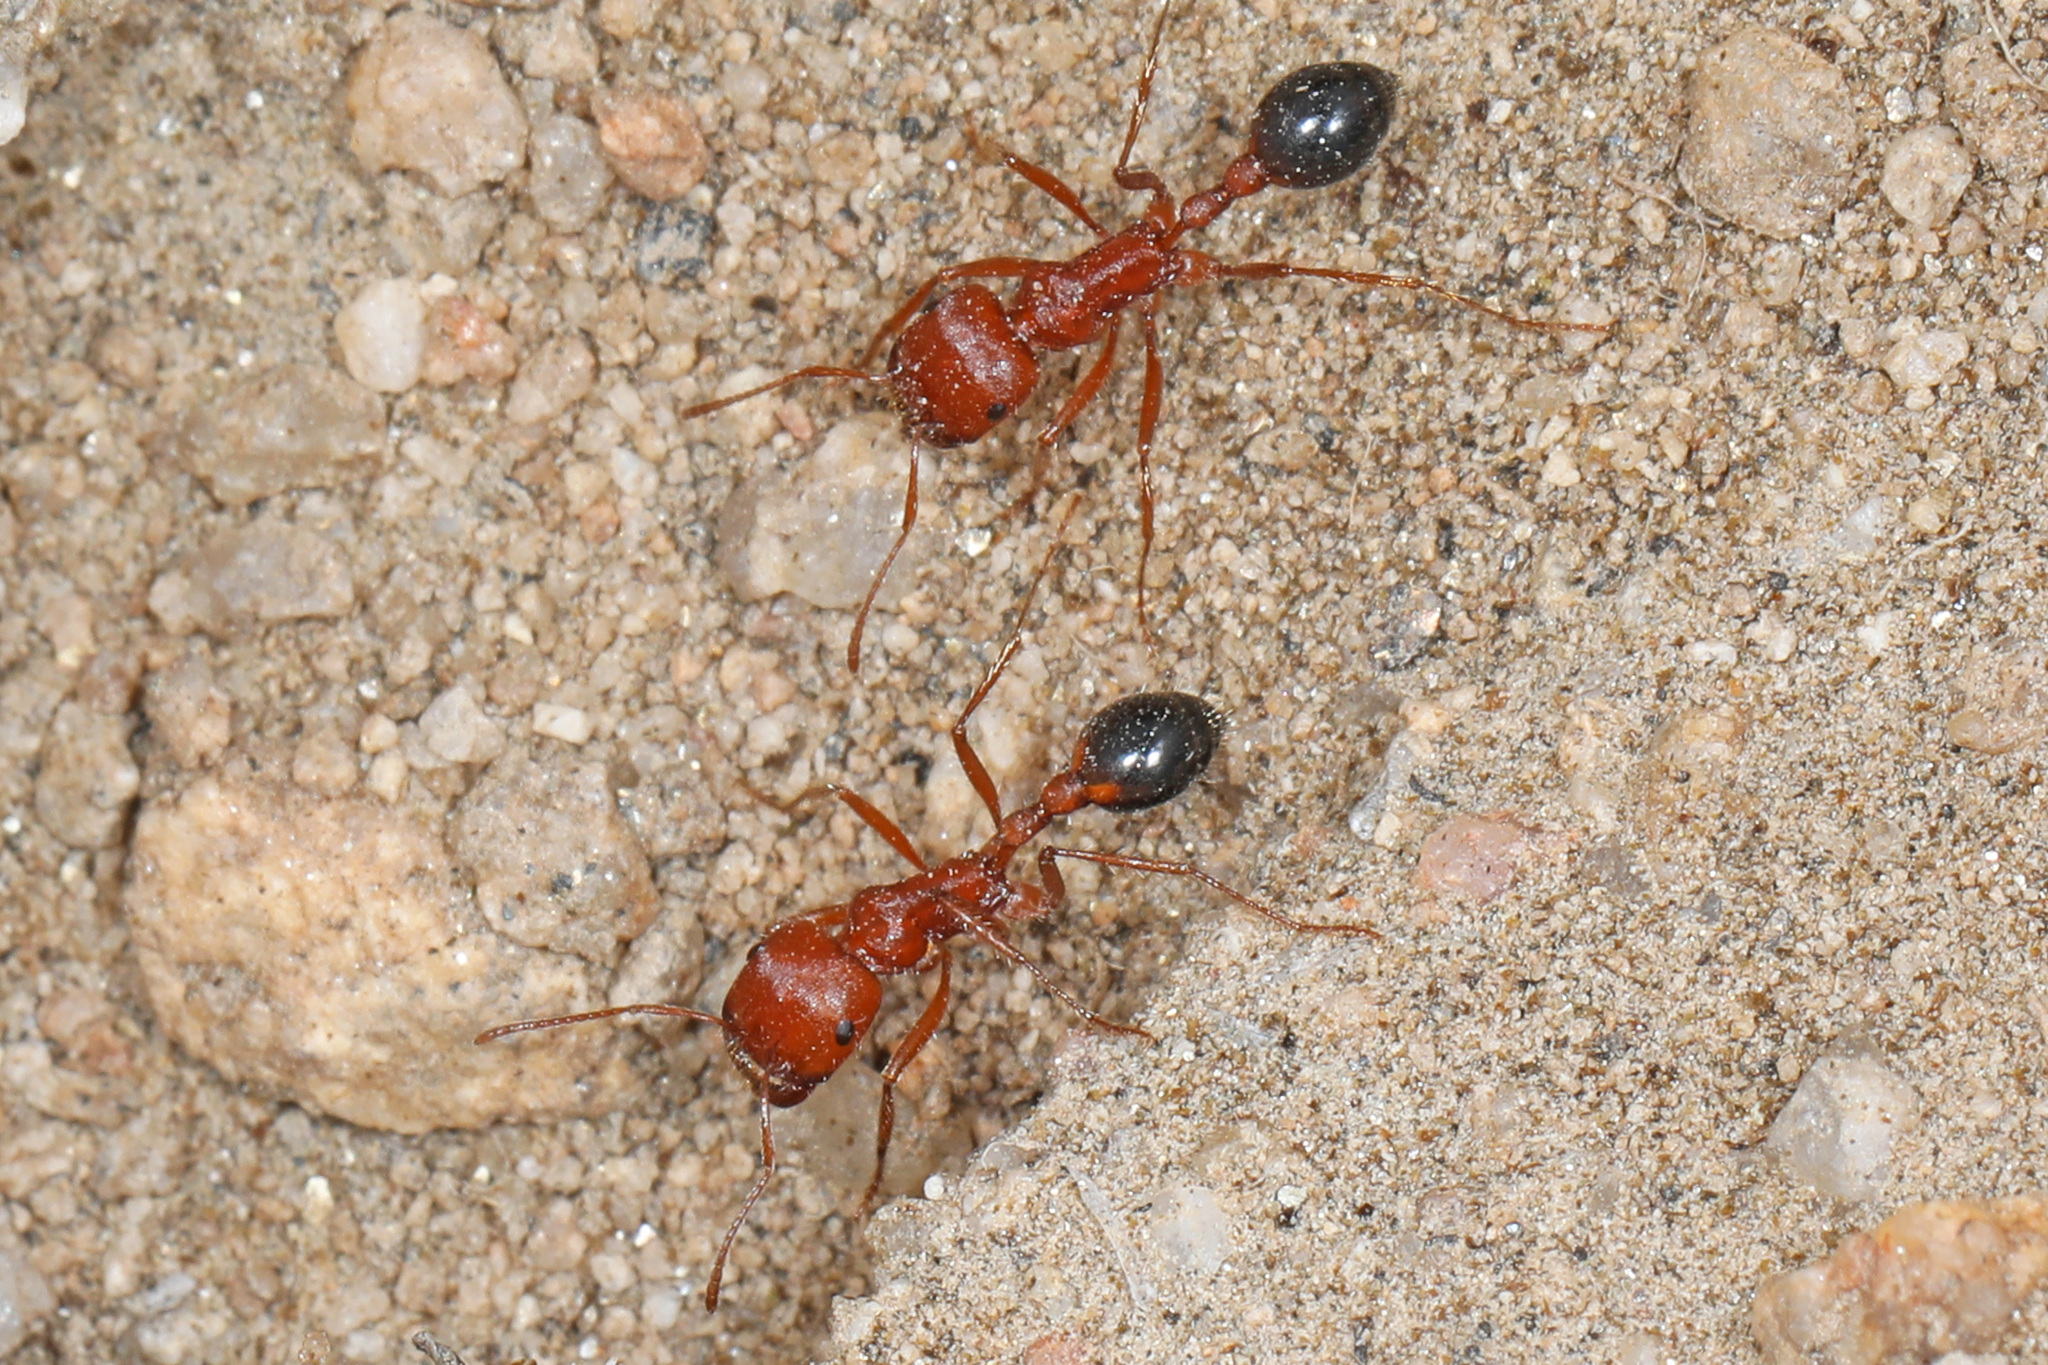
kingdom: Animalia
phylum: Arthropoda
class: Insecta
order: Hymenoptera
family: Formicidae
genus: Pogonomyrmex
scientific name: Pogonomyrmex californicus
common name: California harvester ant
